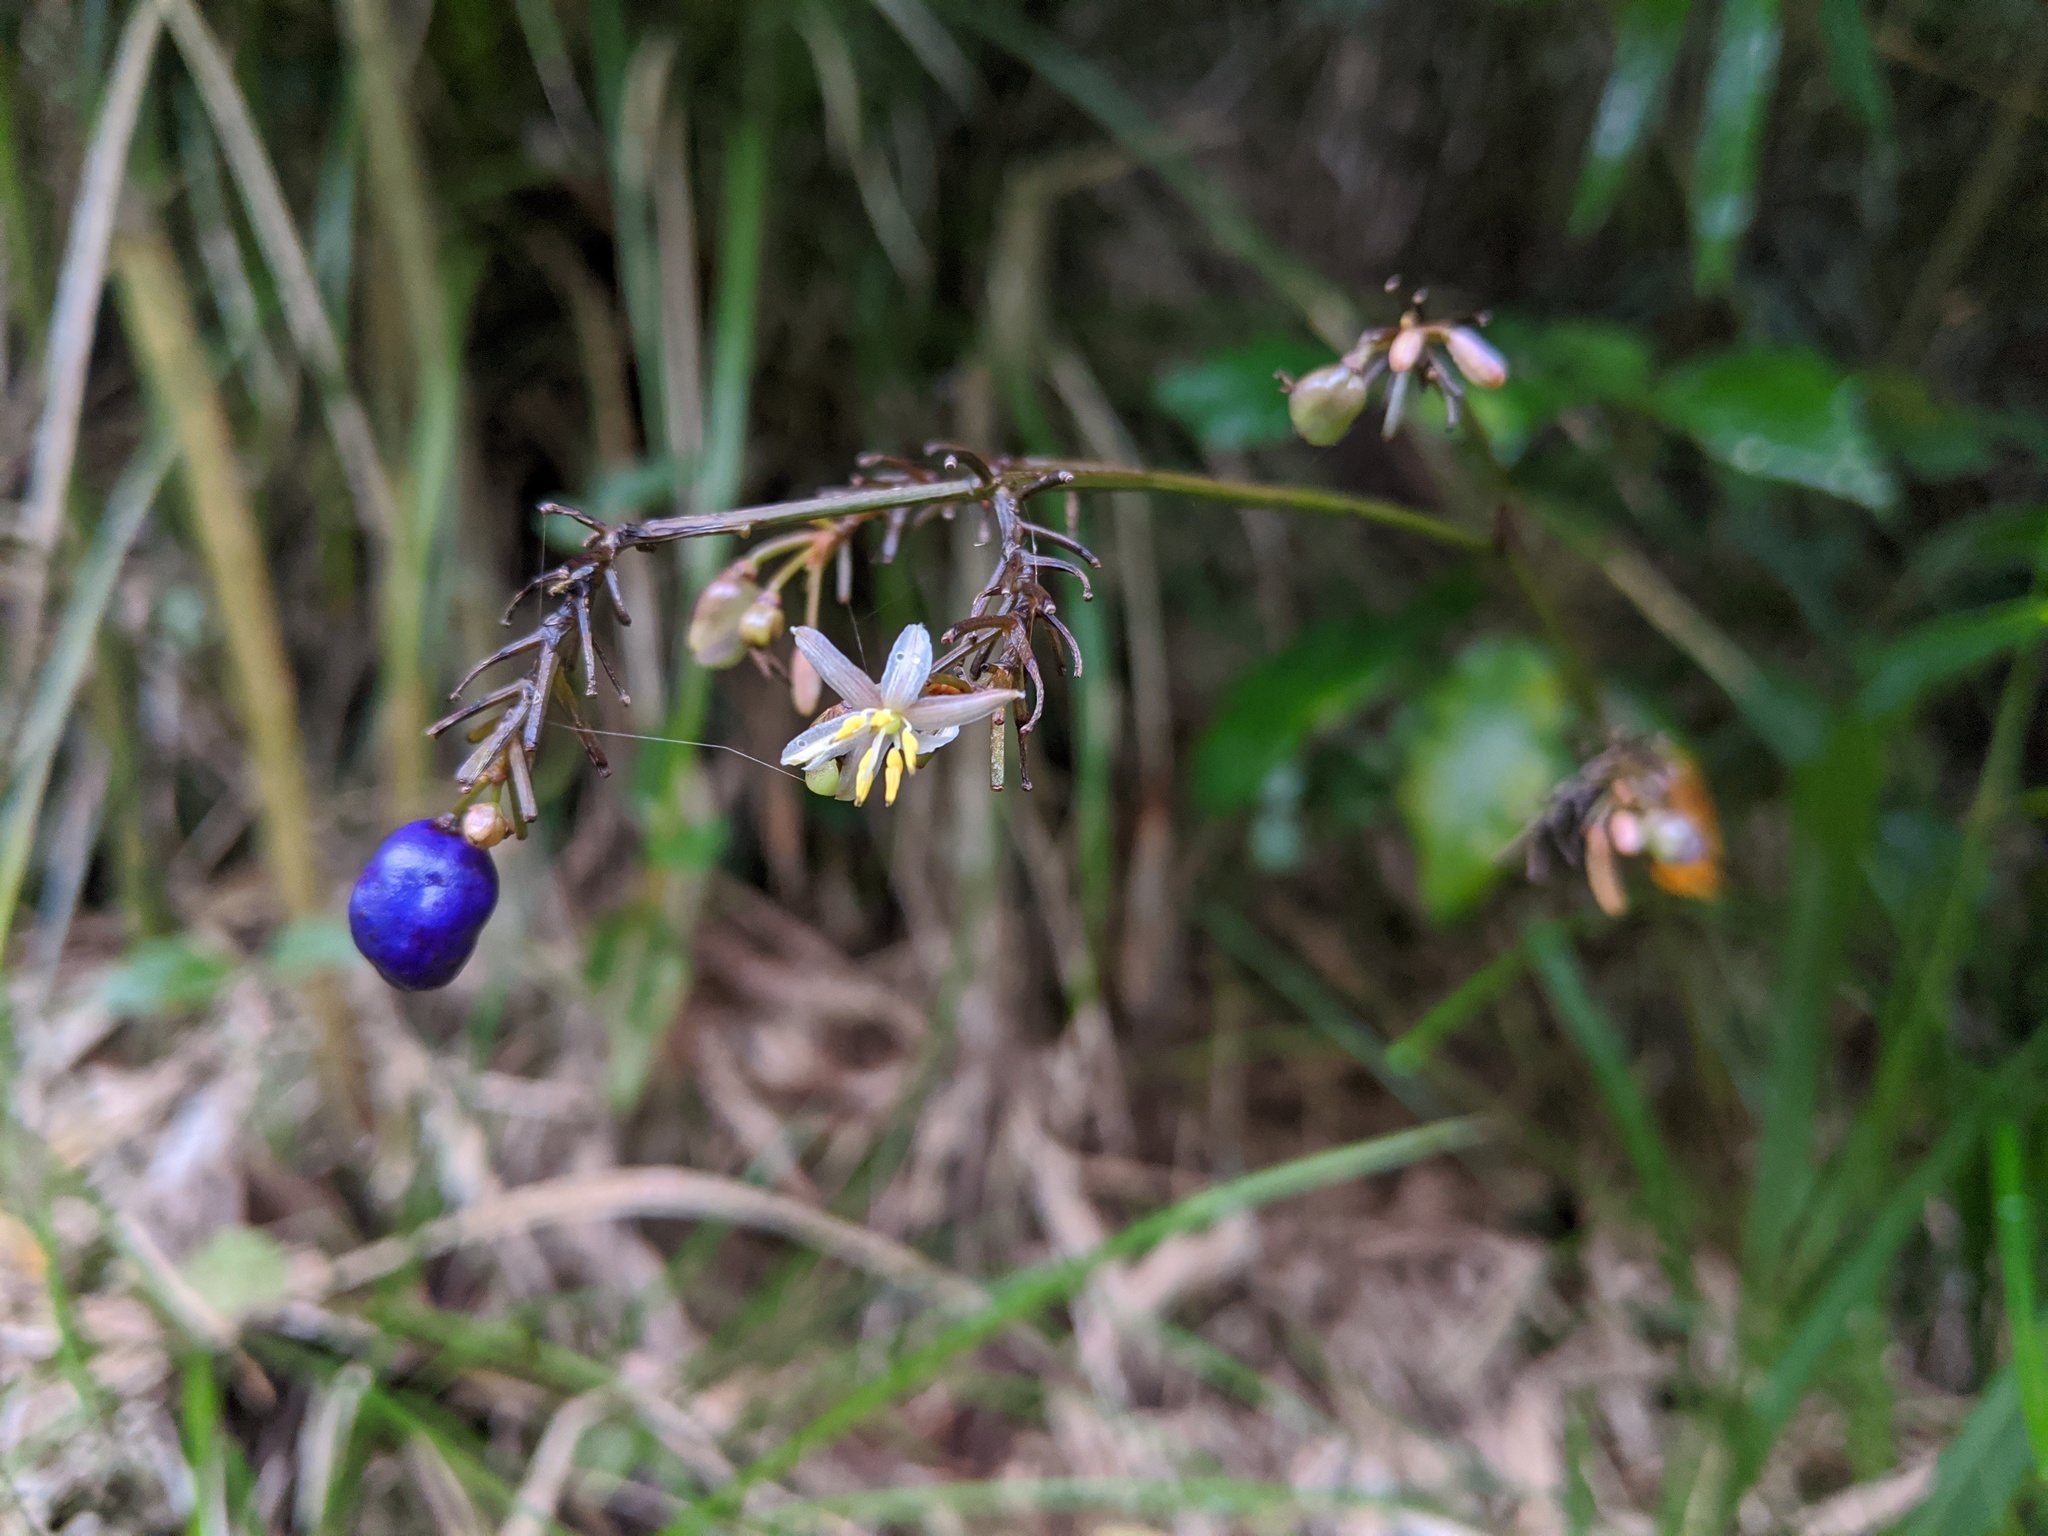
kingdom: Plantae
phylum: Tracheophyta
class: Liliopsida
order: Asparagales
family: Asphodelaceae
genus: Dianella
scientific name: Dianella ensifolia
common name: New zealand lilyplant
